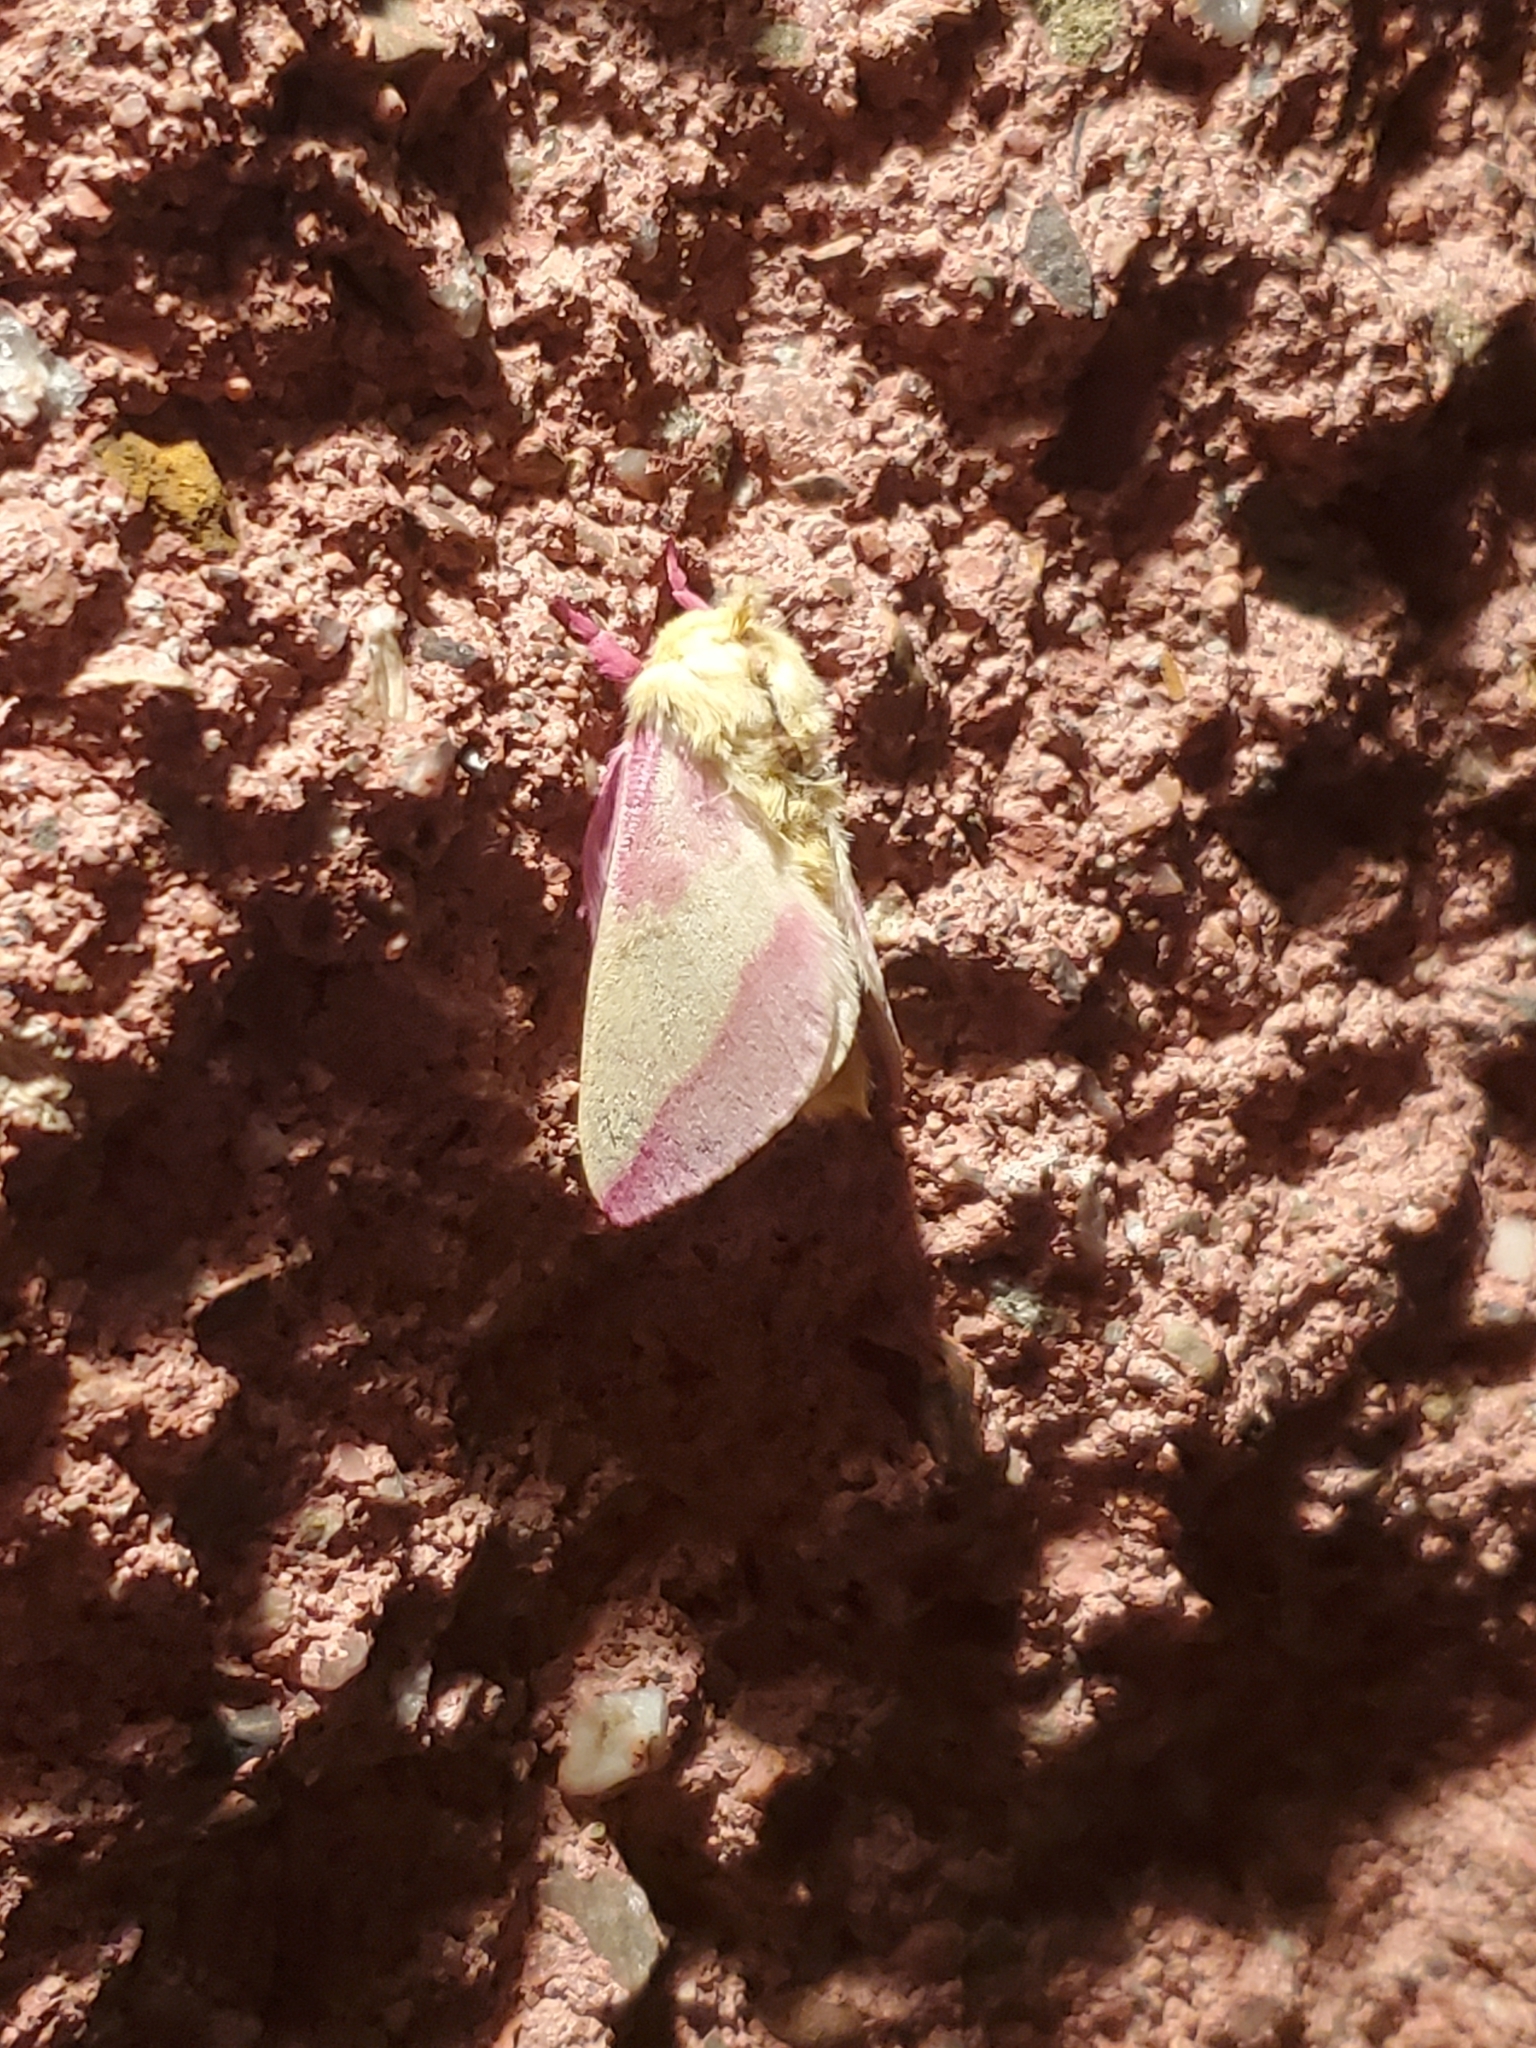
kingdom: Animalia
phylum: Arthropoda
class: Insecta
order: Lepidoptera
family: Saturniidae
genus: Dryocampa
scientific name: Dryocampa rubicunda
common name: Rosy maple moth
